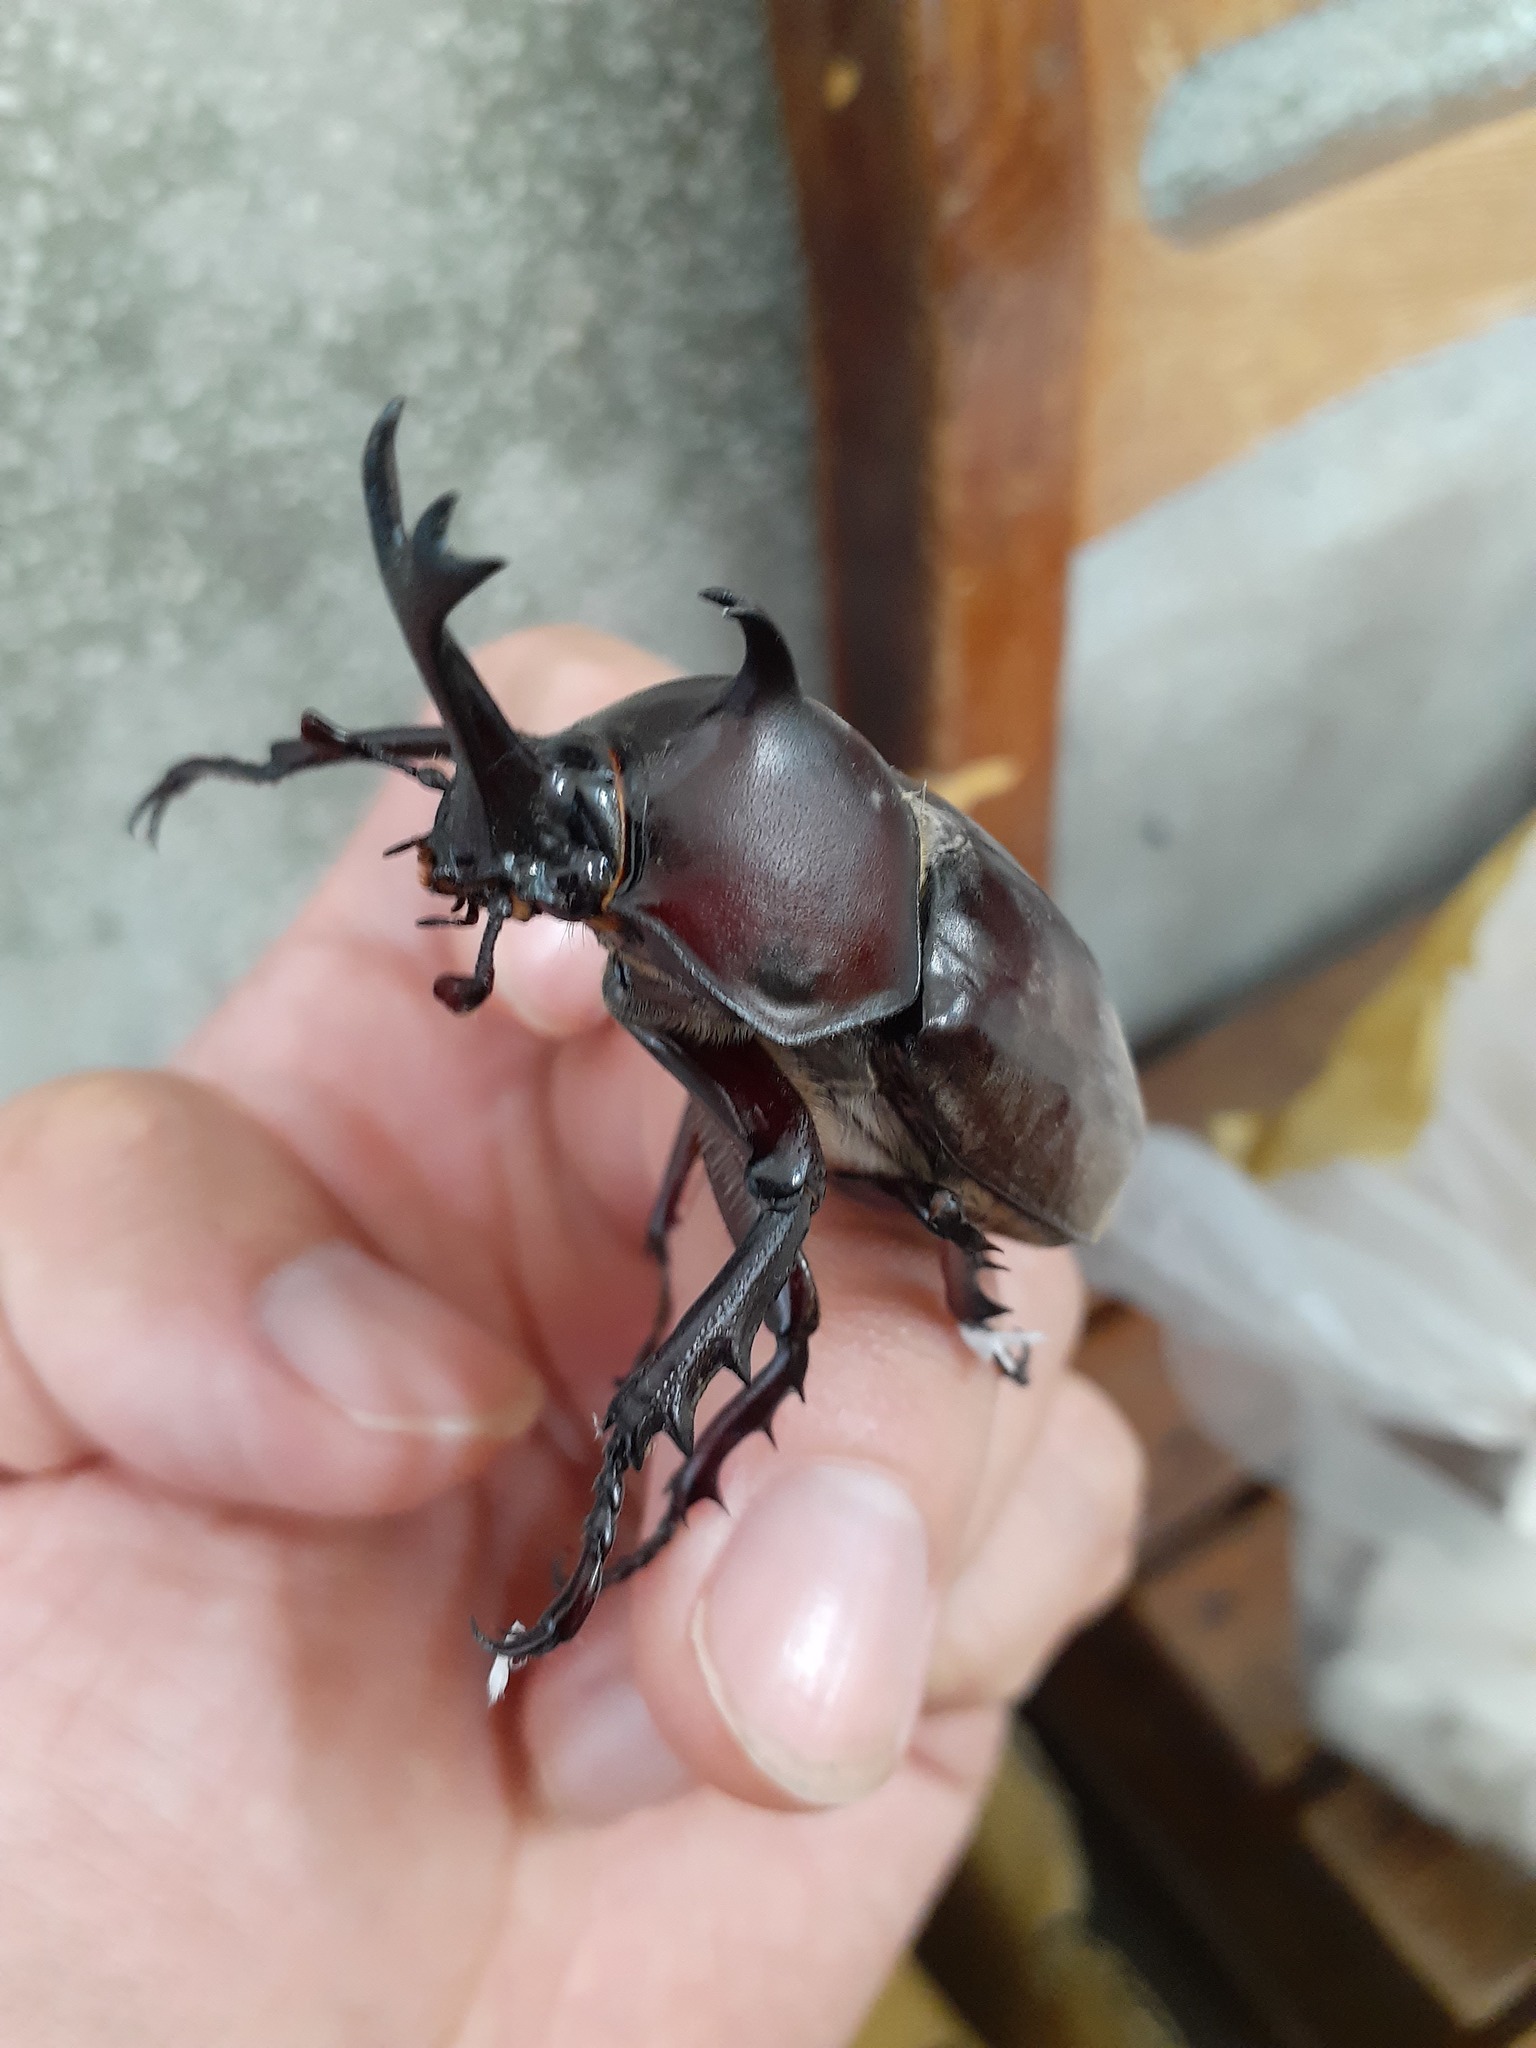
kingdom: Animalia
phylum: Arthropoda
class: Insecta
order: Coleoptera
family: Scarabaeidae
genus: Trypoxylus
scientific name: Trypoxylus dichotomus
